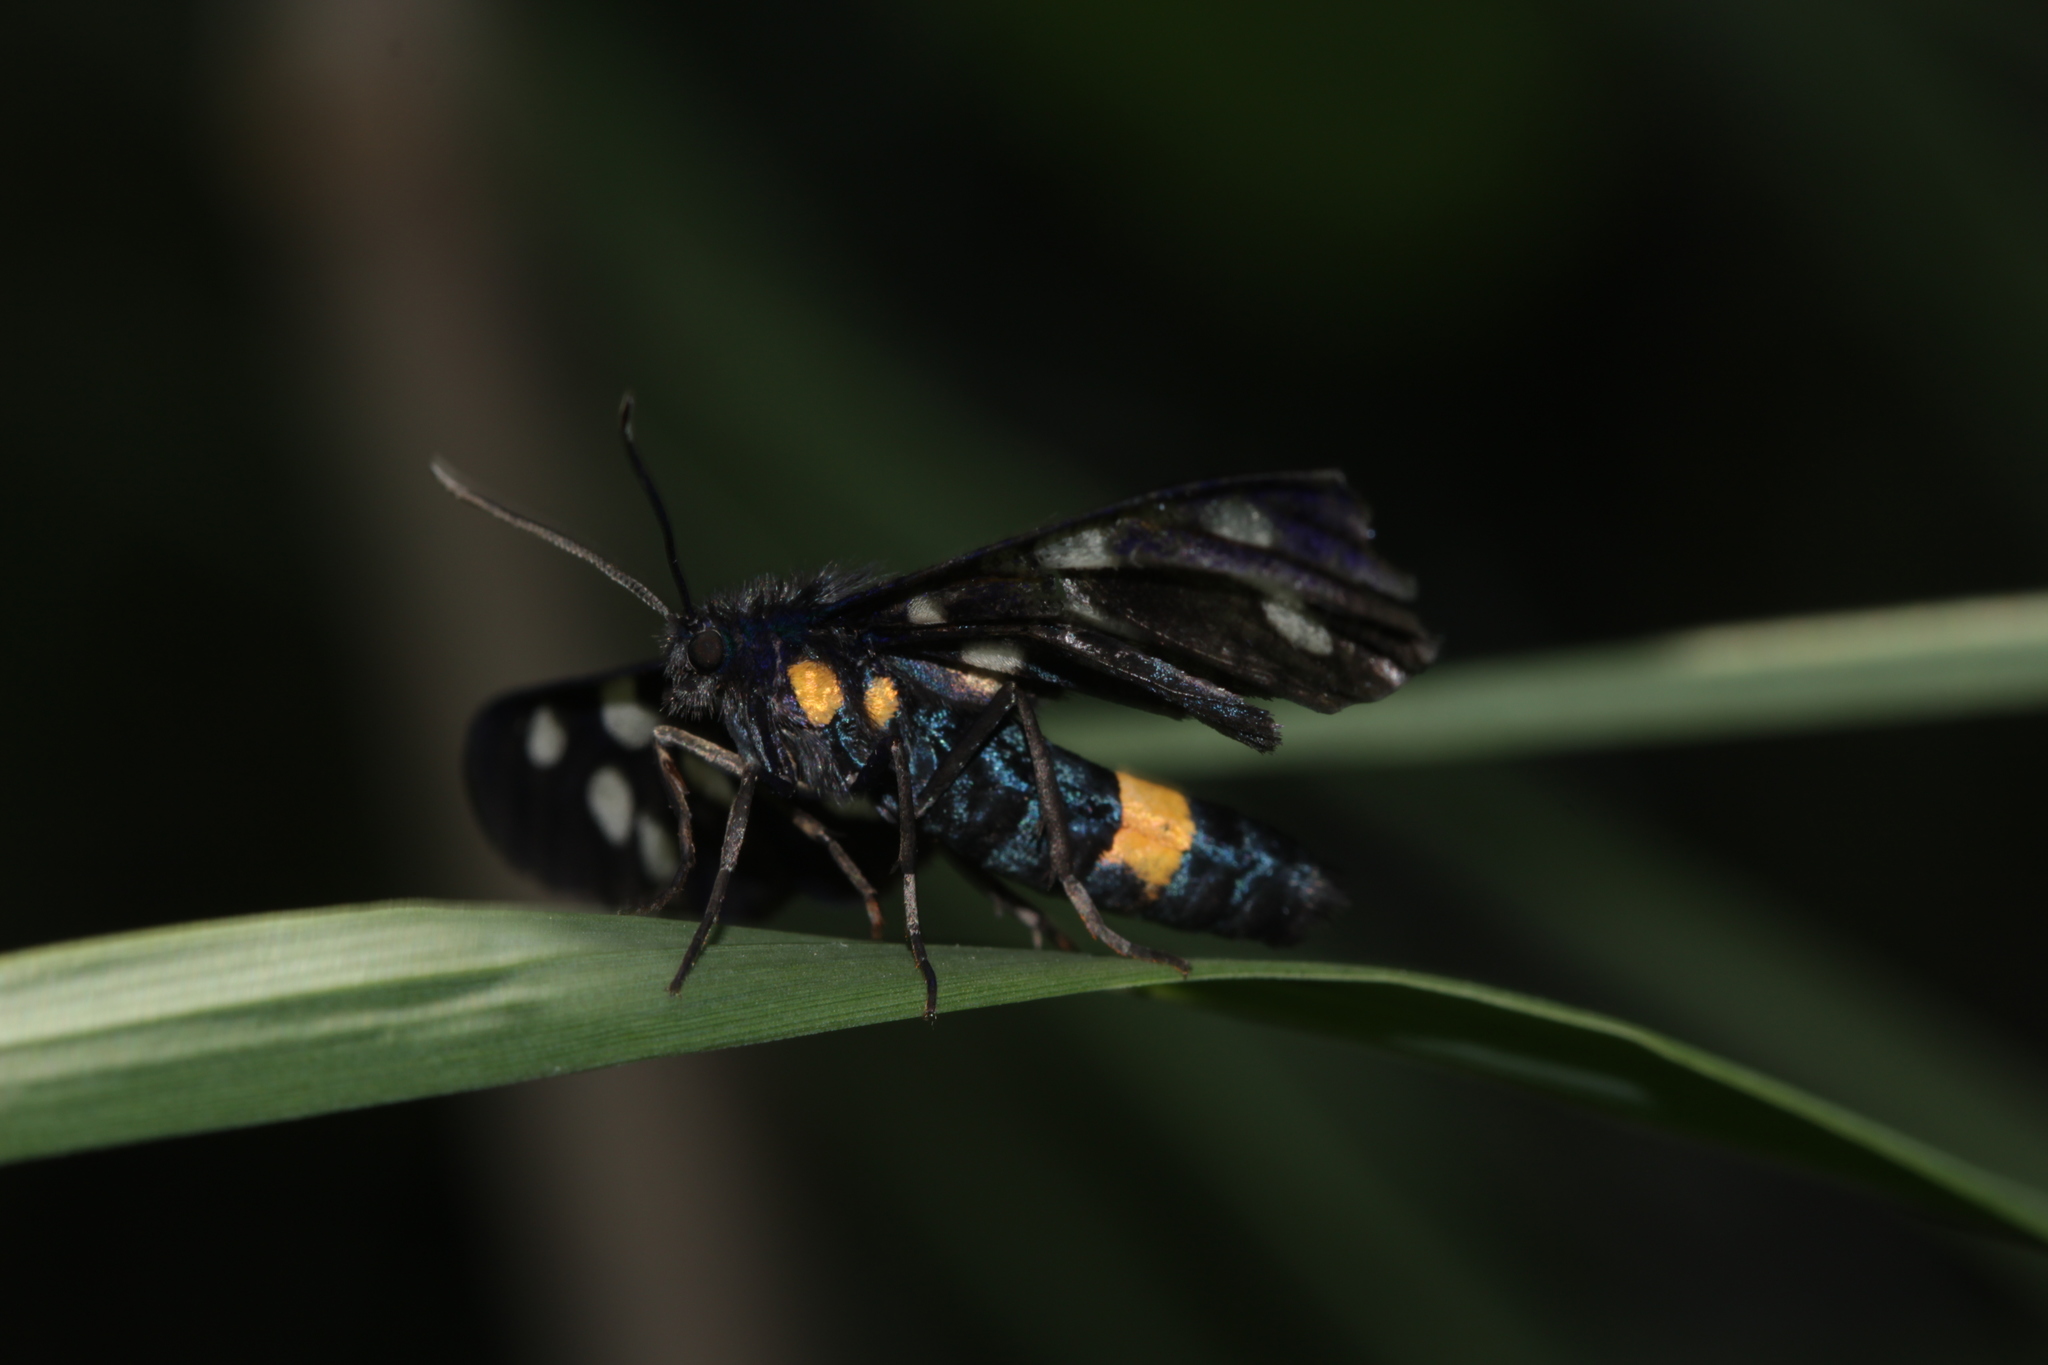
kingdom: Animalia
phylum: Arthropoda
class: Insecta
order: Lepidoptera
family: Erebidae
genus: Amata
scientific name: Amata phegea
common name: Nine-spotted
